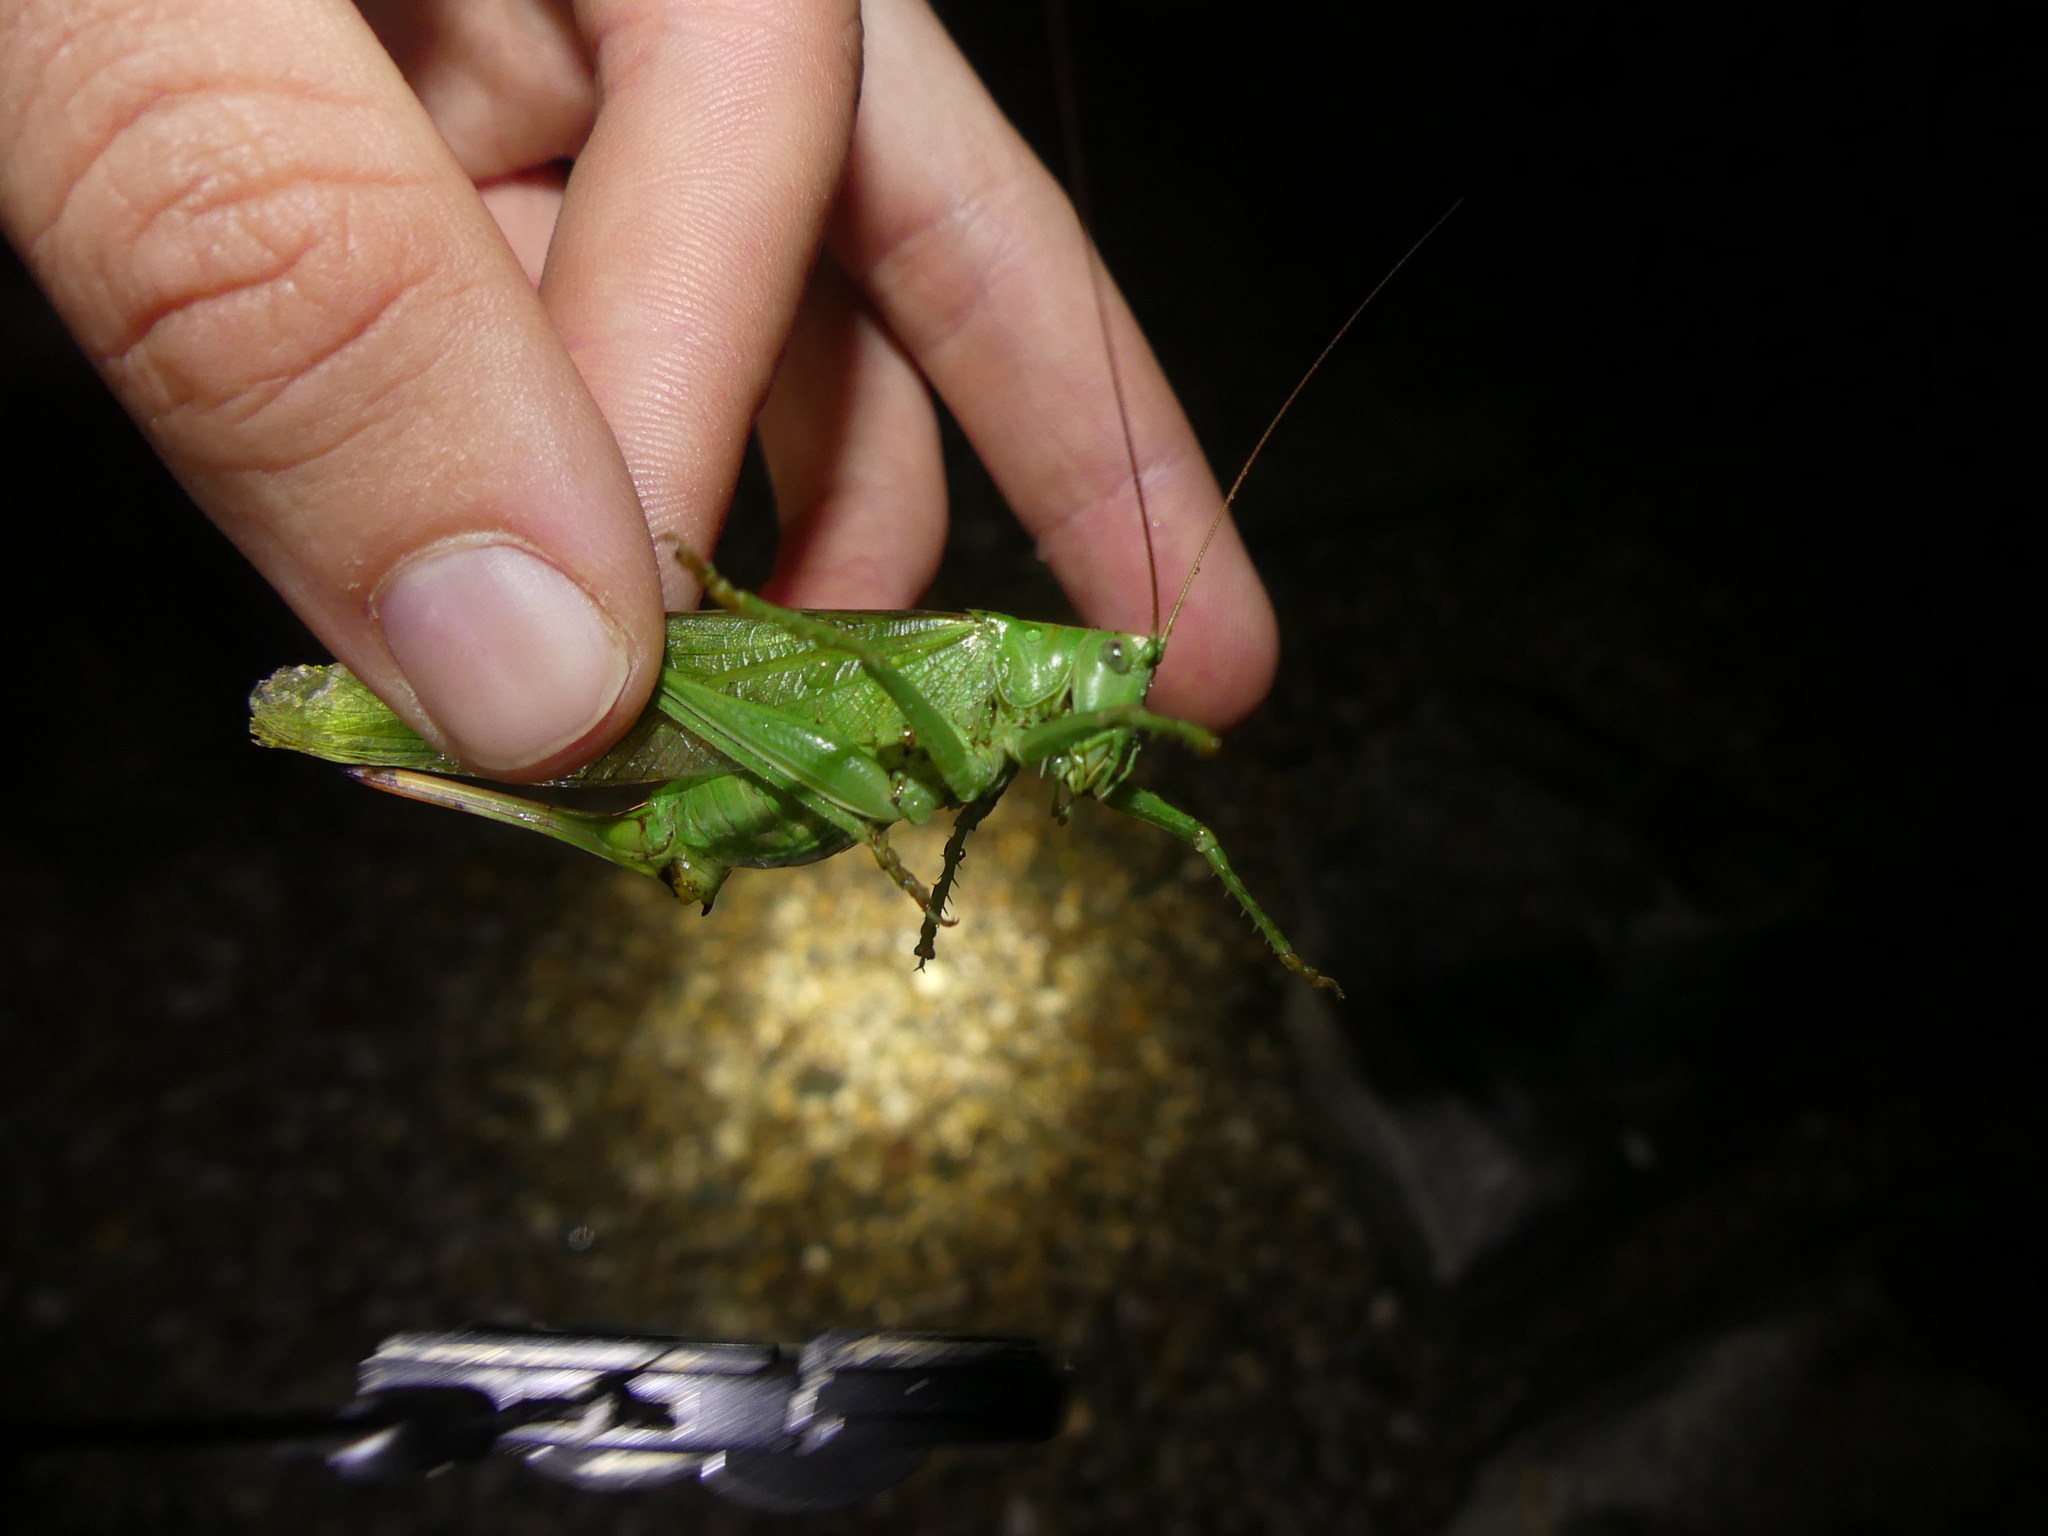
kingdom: Animalia
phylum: Arthropoda
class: Insecta
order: Orthoptera
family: Tettigoniidae
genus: Tettigonia
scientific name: Tettigonia viridissima
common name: Great green bush-cricket
